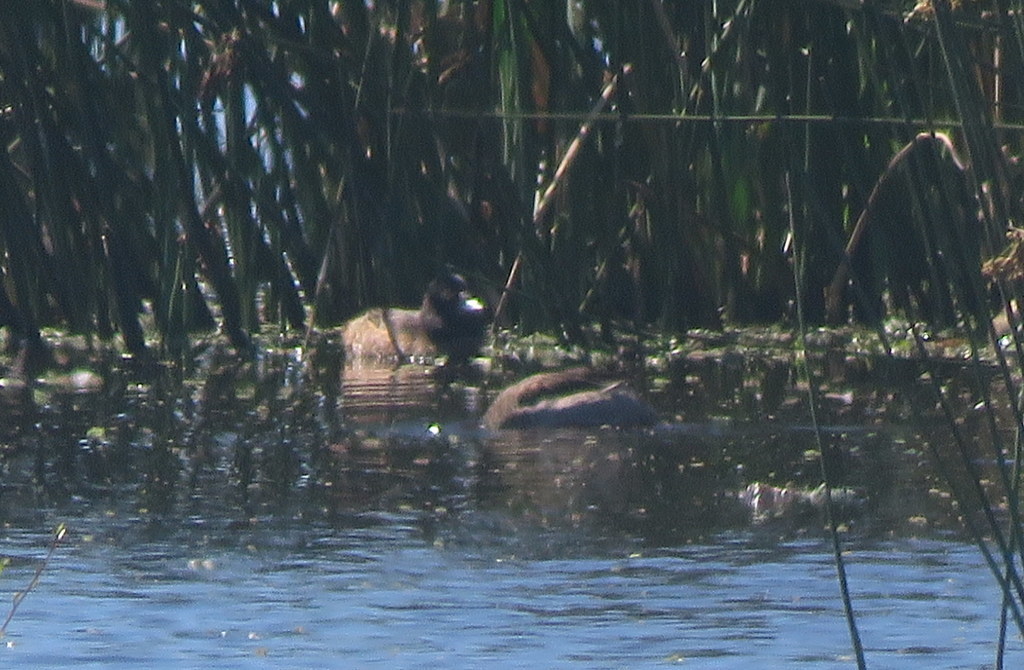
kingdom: Animalia
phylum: Chordata
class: Aves
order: Anseriformes
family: Anatidae
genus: Heteronetta
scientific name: Heteronetta atricapilla
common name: Black-headed duck
